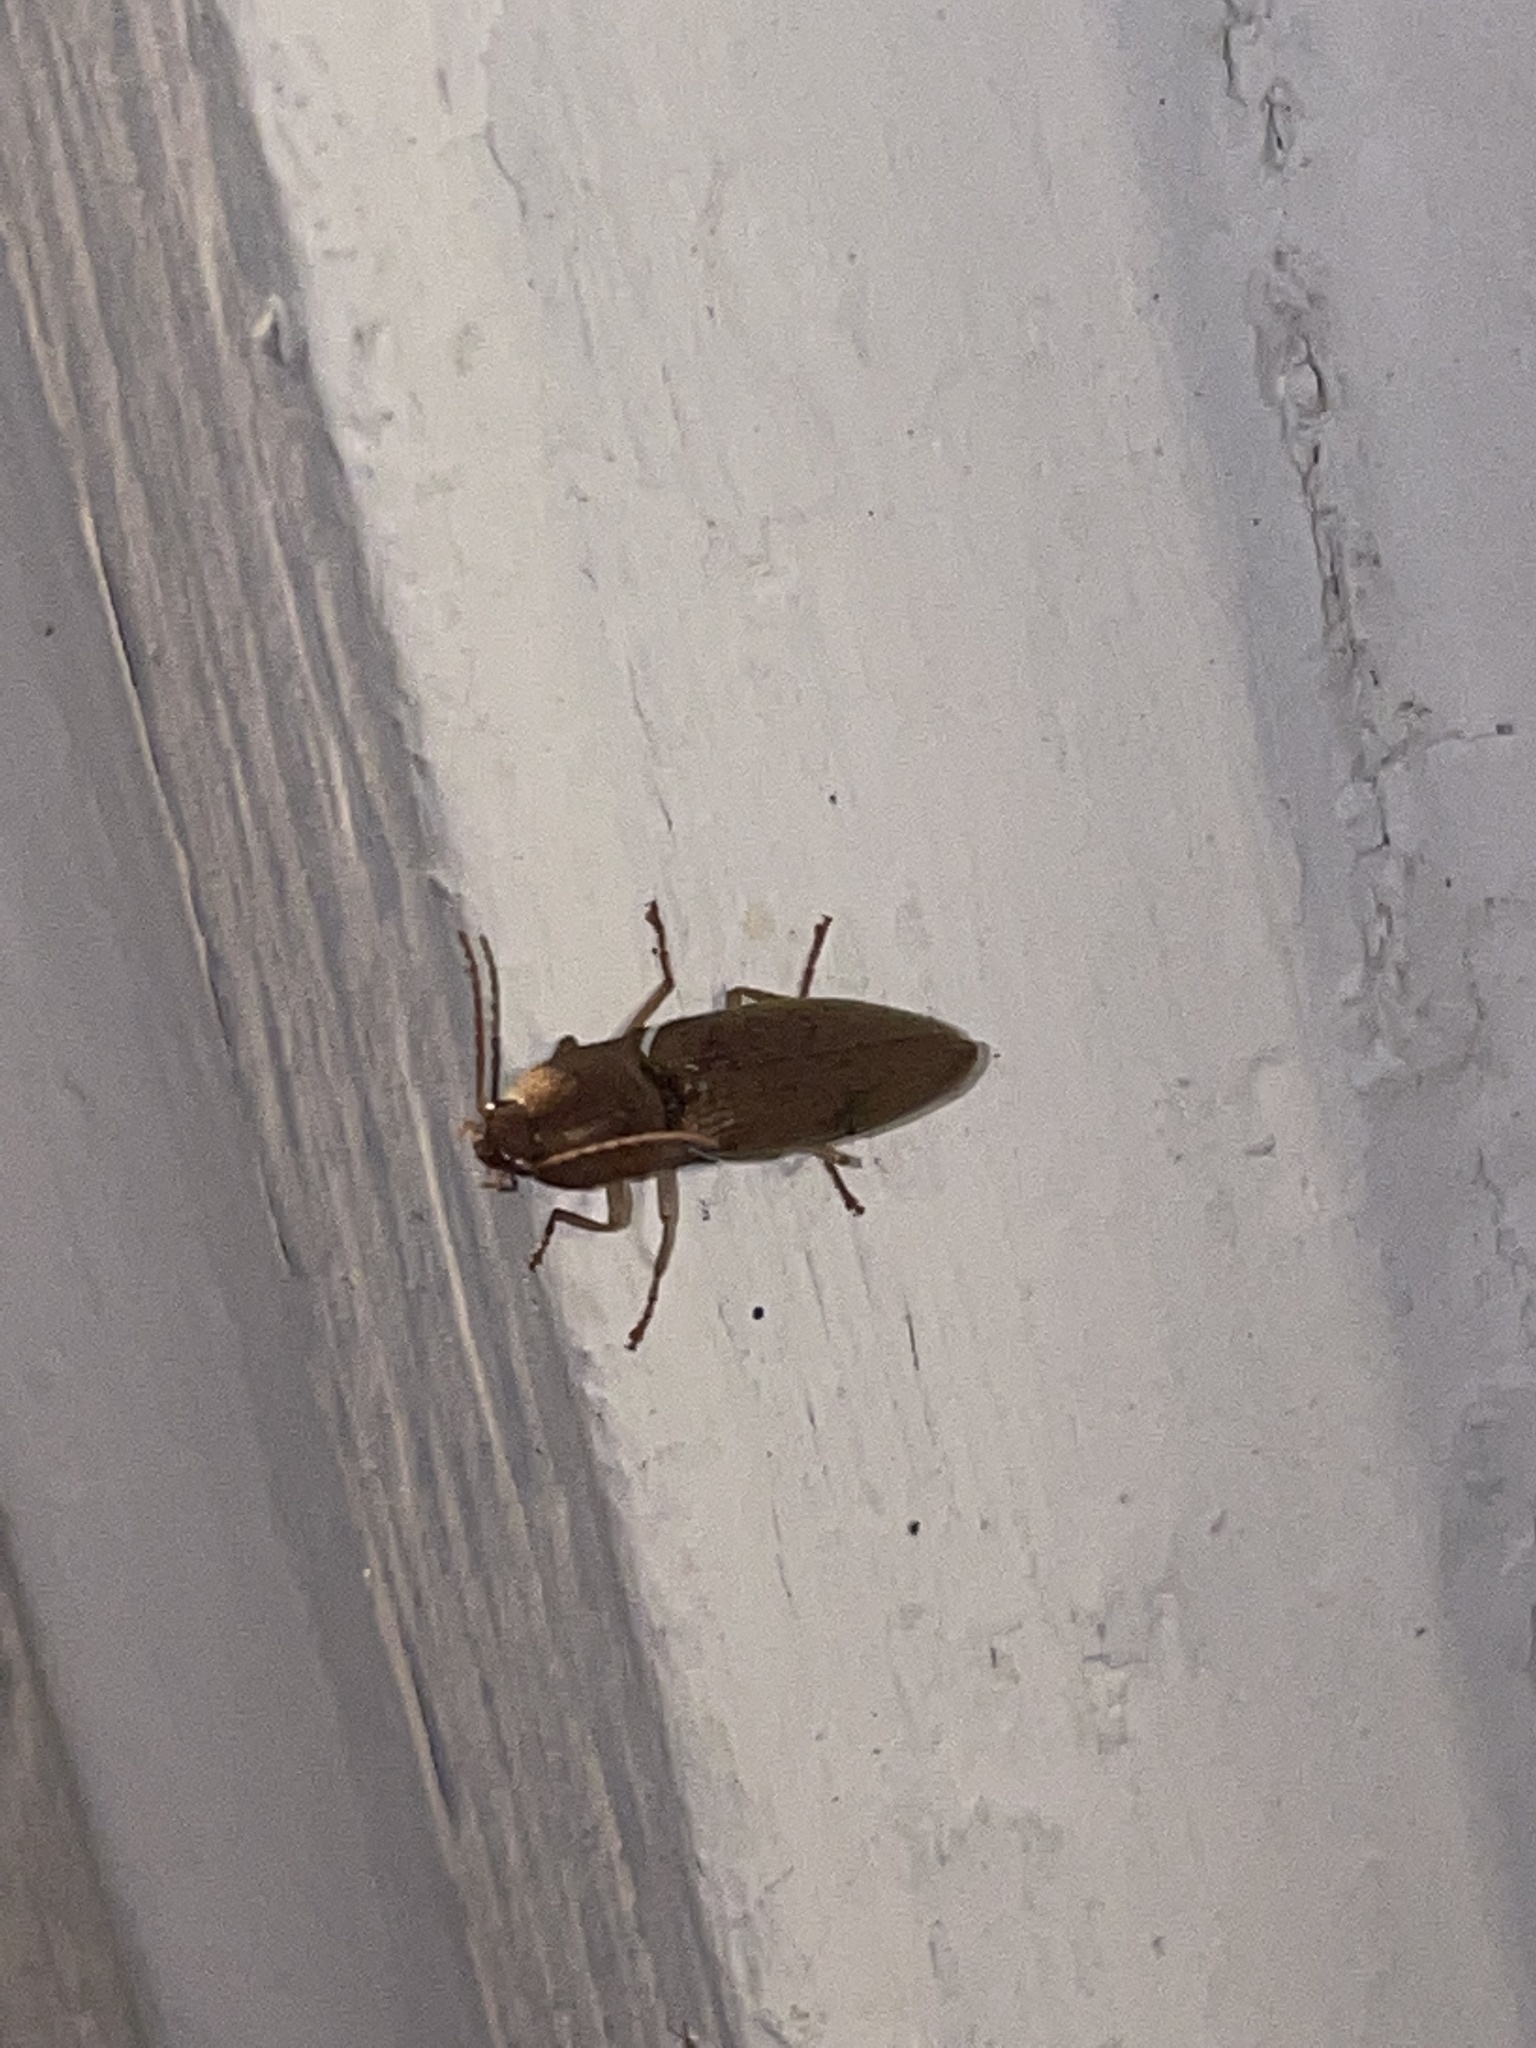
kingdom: Animalia
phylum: Arthropoda
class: Insecta
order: Coleoptera
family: Elateridae
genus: Monocrepidius
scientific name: Monocrepidius lividus
